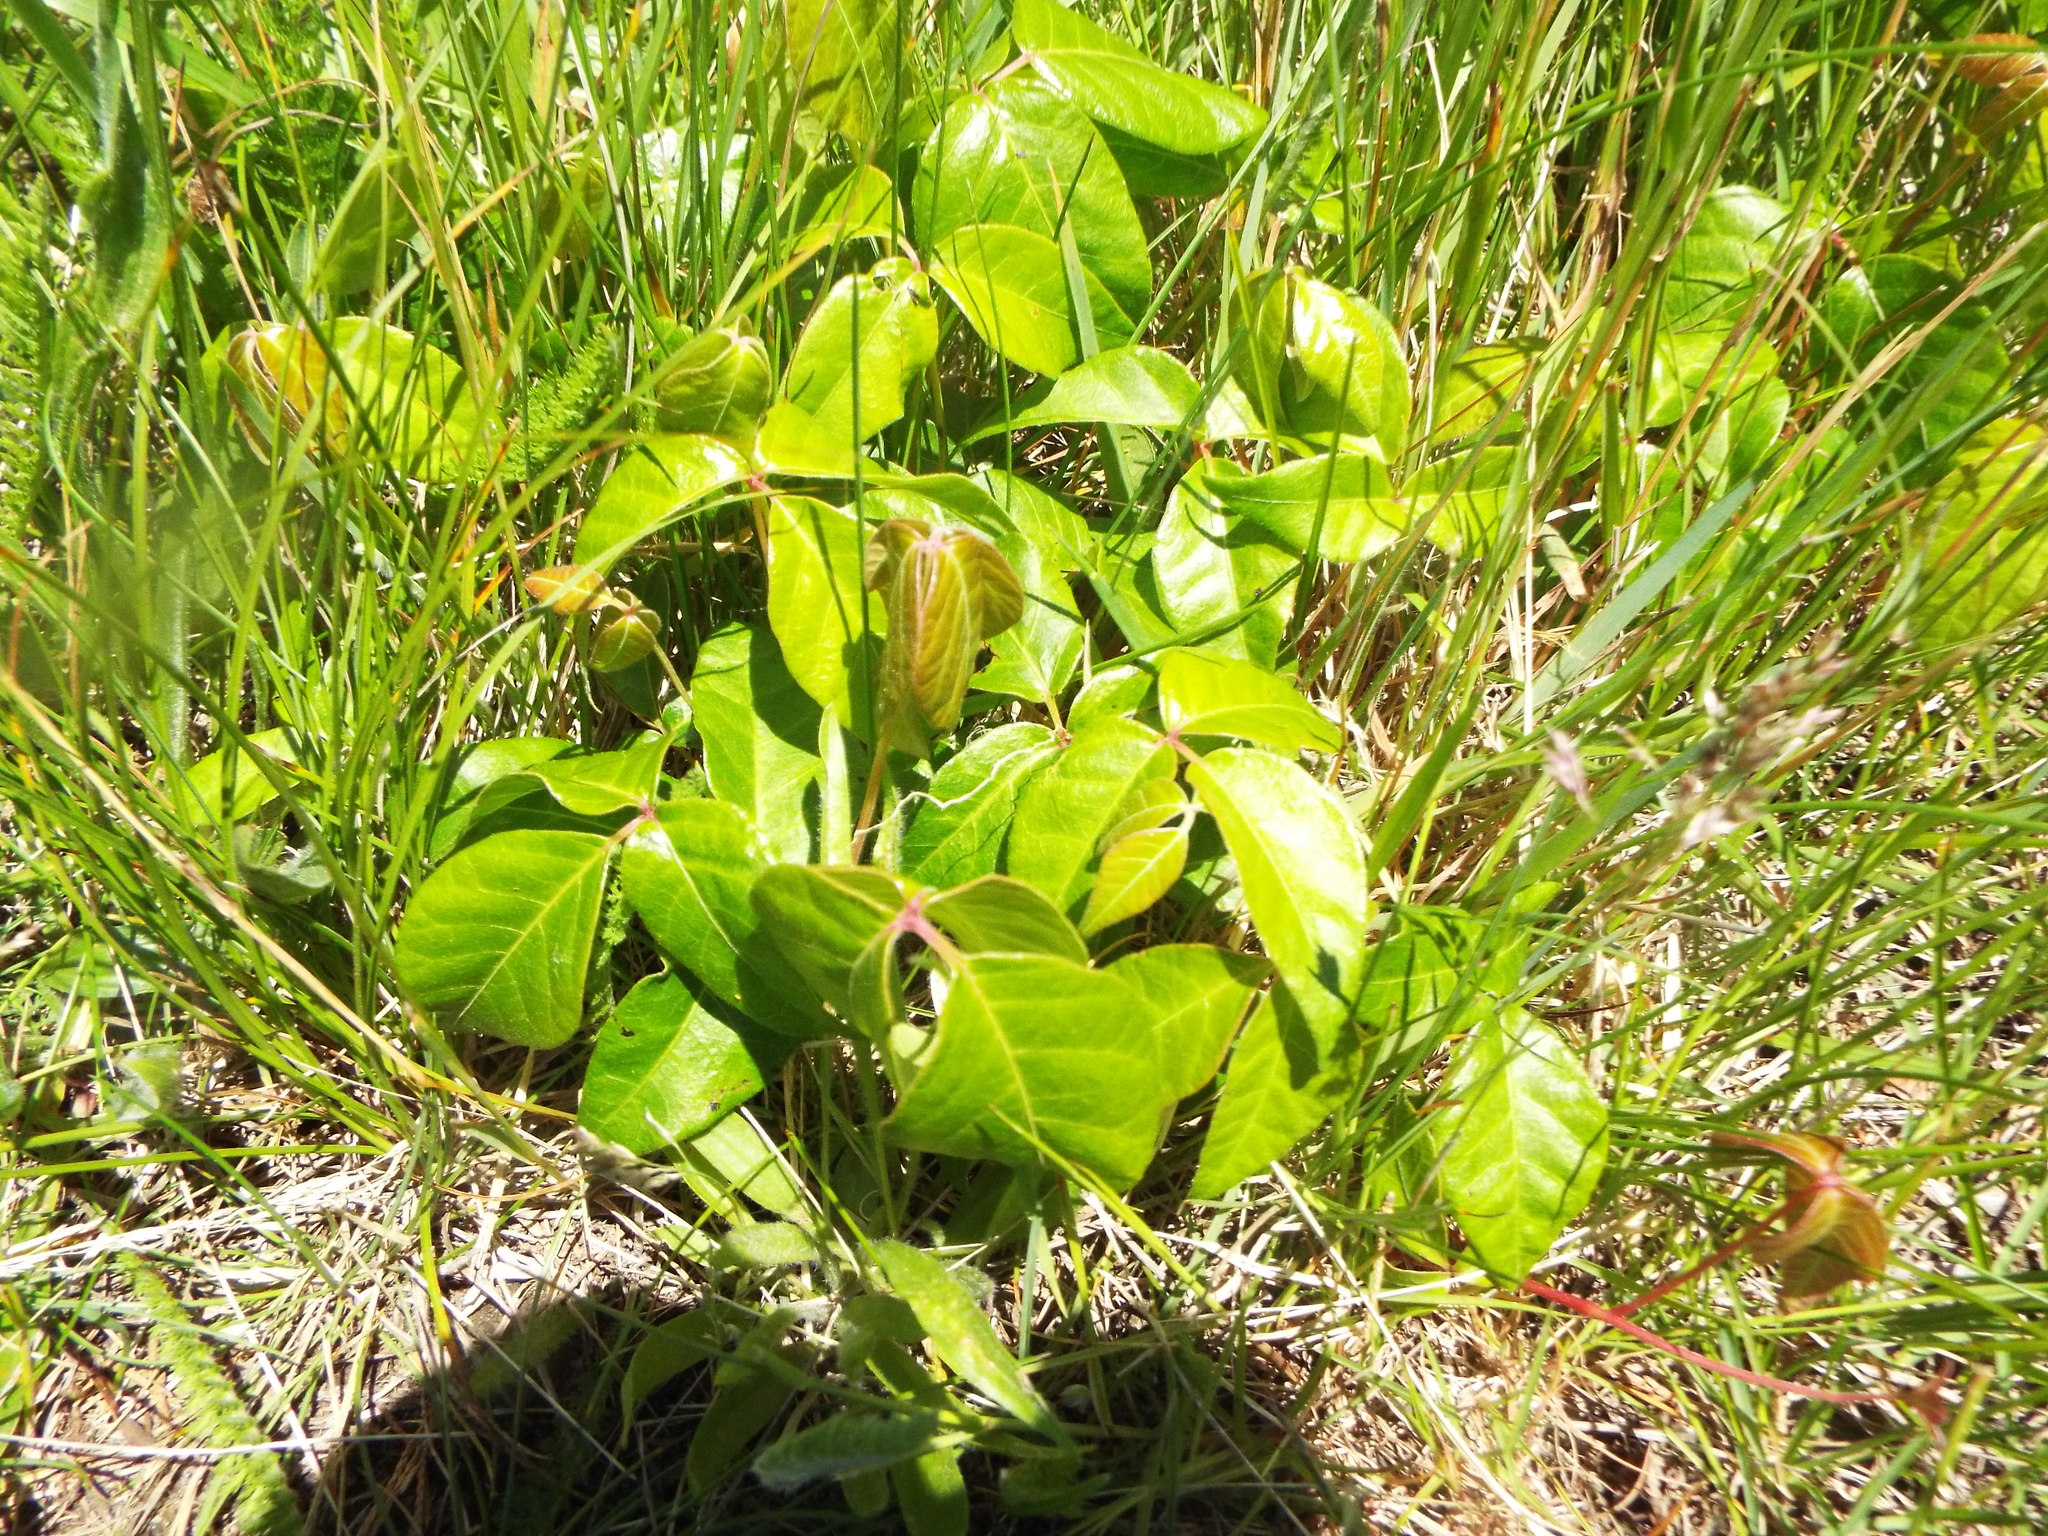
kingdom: Plantae
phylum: Tracheophyta
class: Magnoliopsida
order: Sapindales
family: Anacardiaceae
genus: Toxicodendron
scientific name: Toxicodendron radicans
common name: Poison ivy
